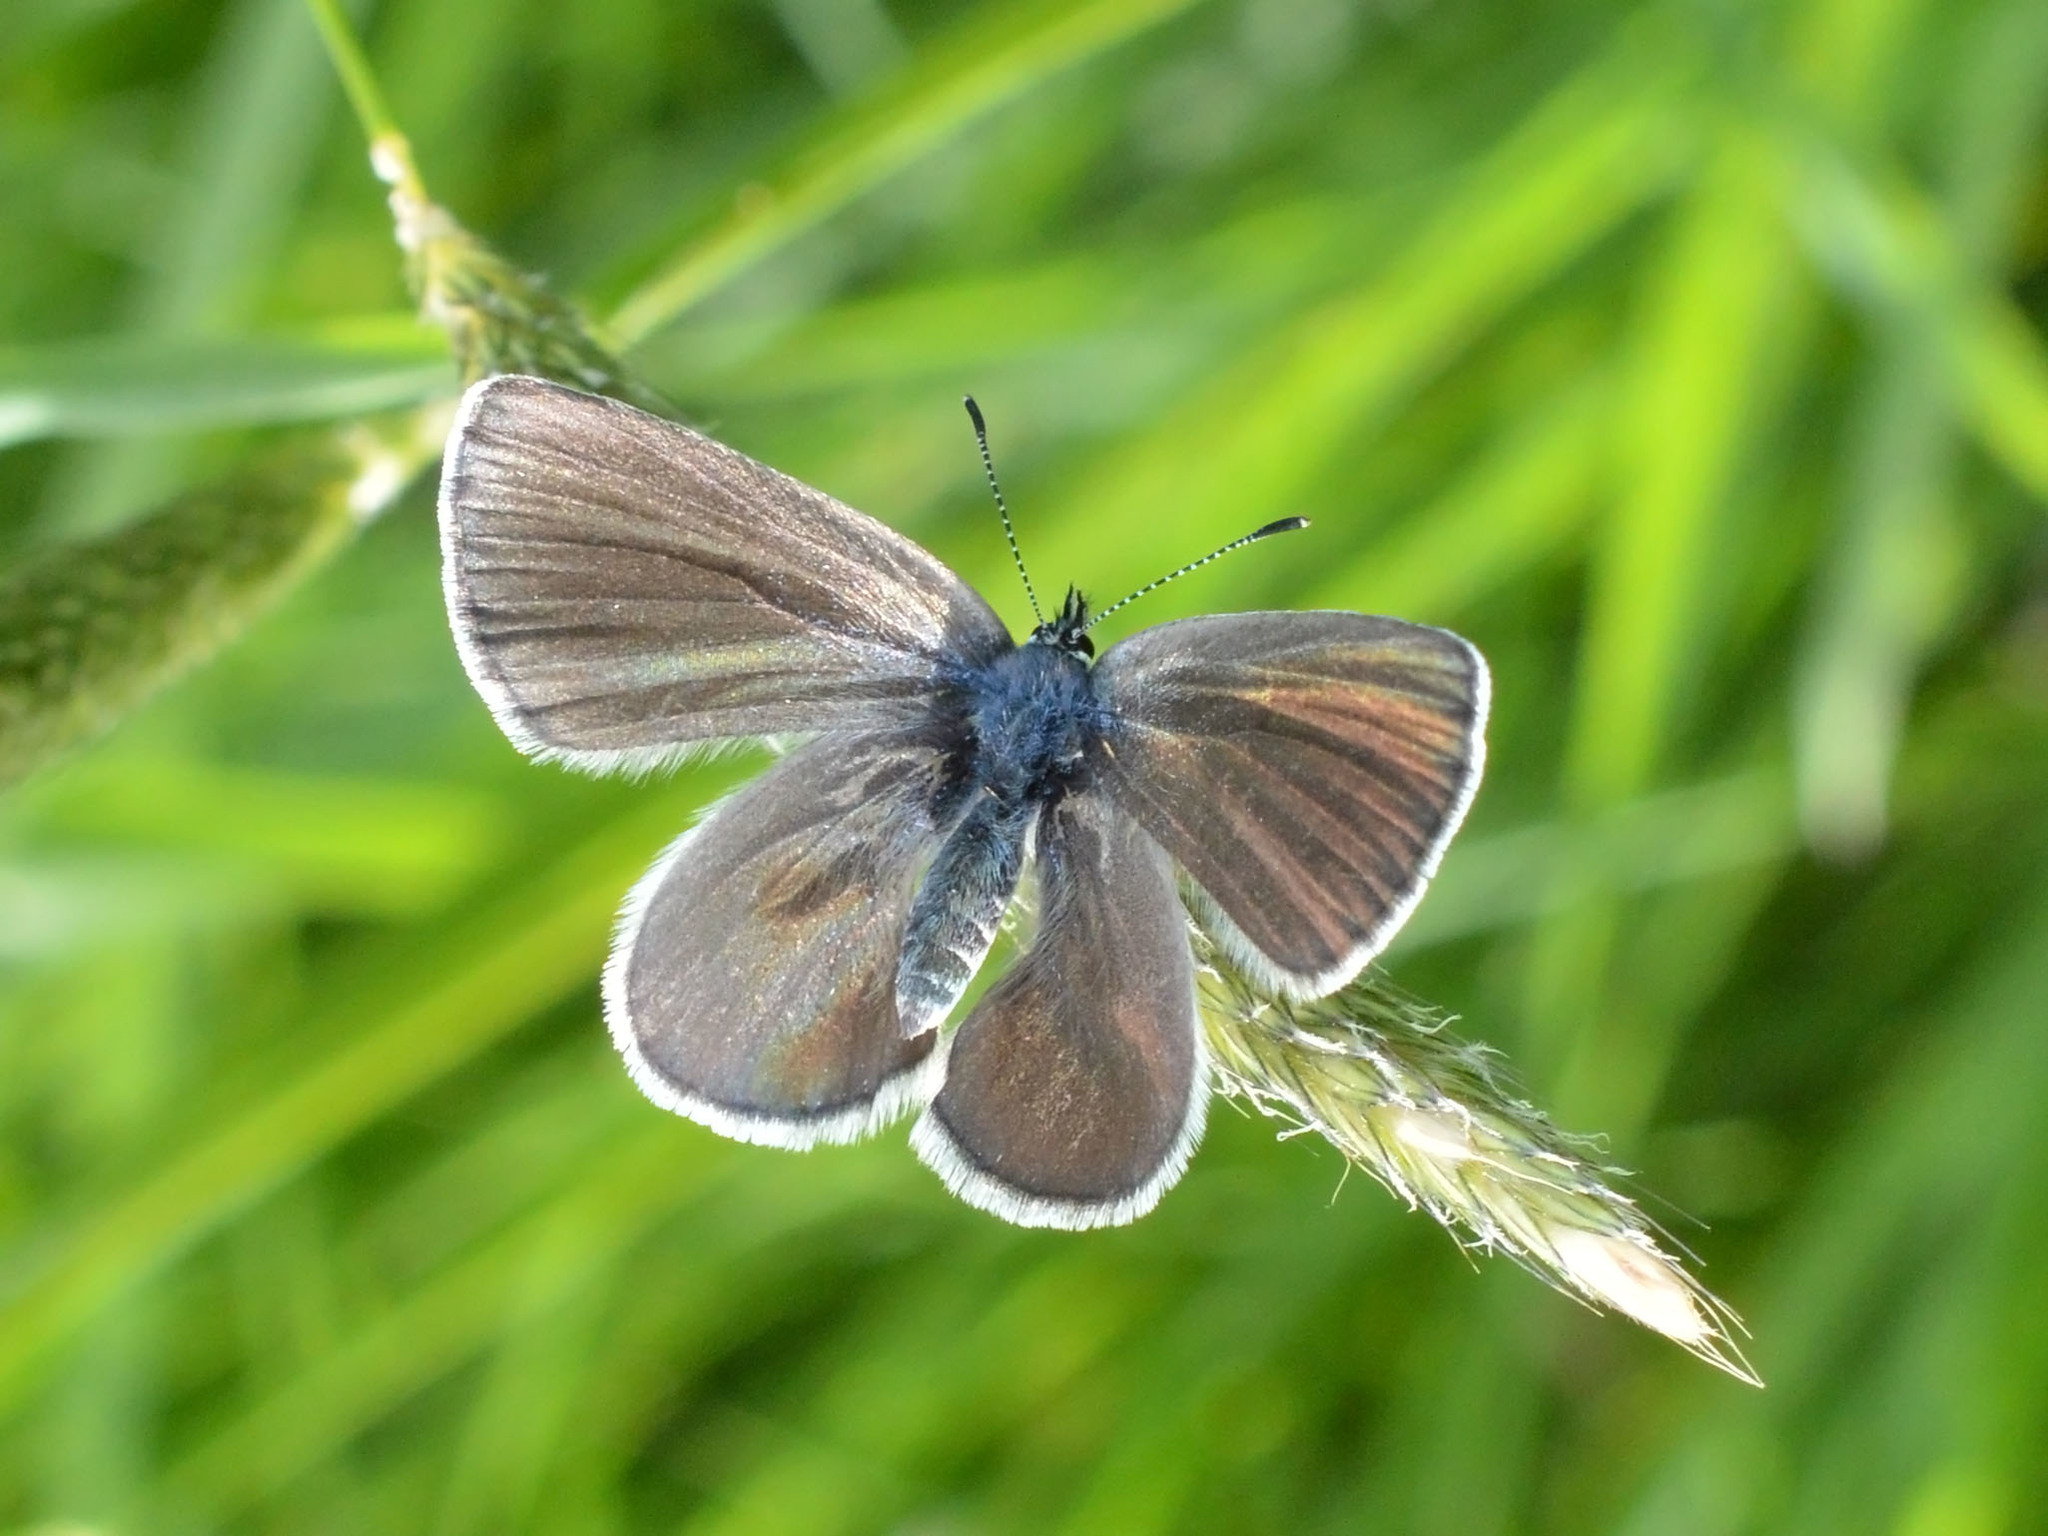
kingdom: Animalia
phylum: Arthropoda
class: Insecta
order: Lepidoptera
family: Lycaenidae
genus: Glaucopsyche
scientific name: Glaucopsyche alexis
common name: Green-underside blue
